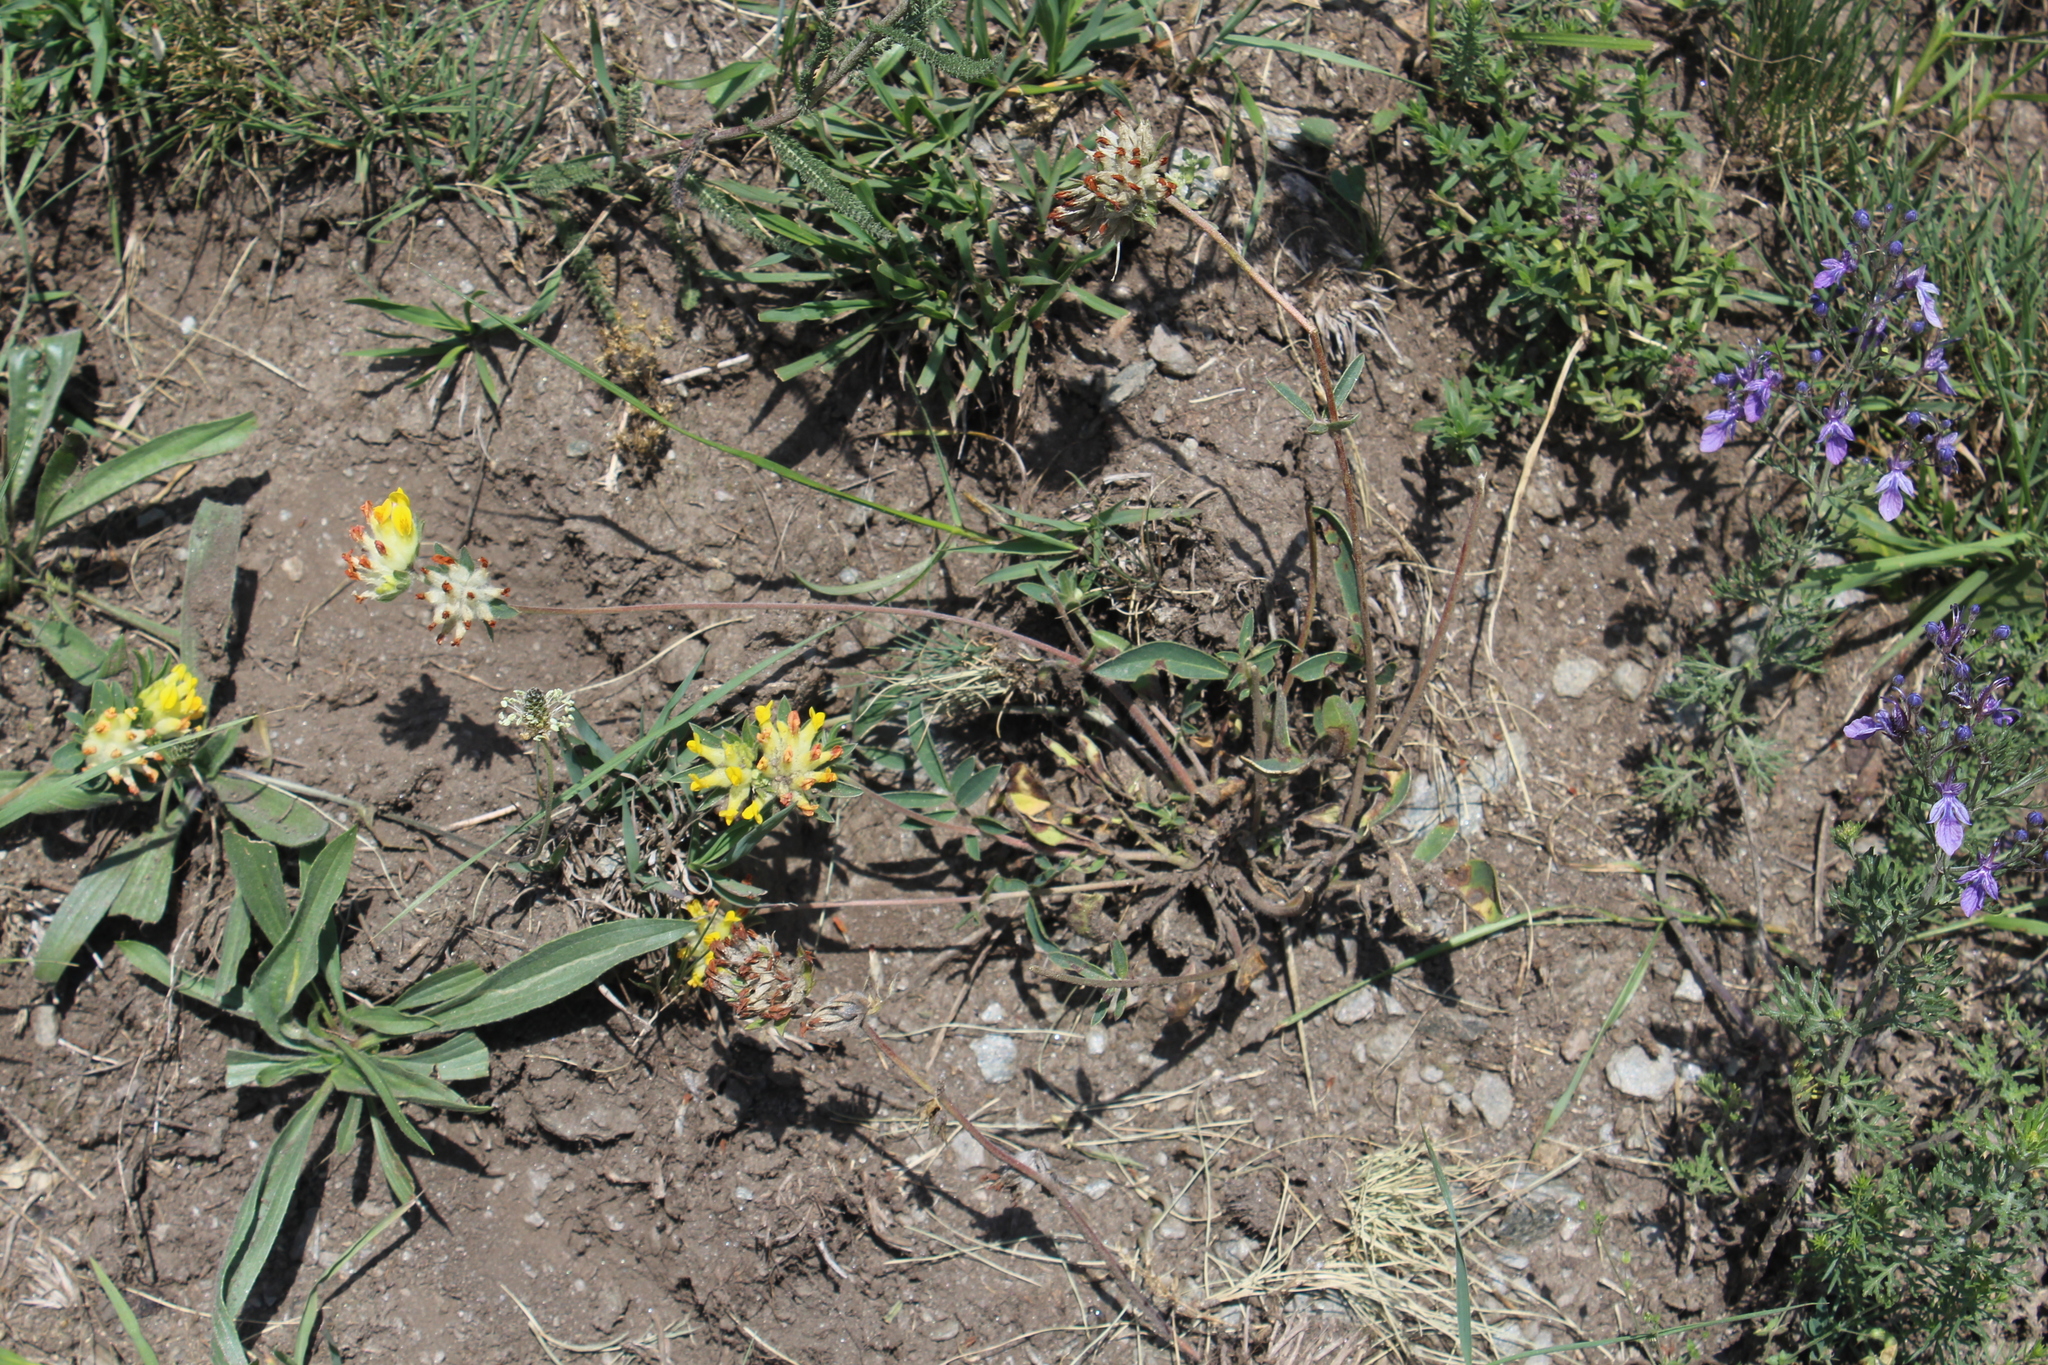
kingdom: Plantae
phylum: Tracheophyta
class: Magnoliopsida
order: Fabales
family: Fabaceae
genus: Anthyllis
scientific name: Anthyllis vulneraria
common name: Kidney vetch
